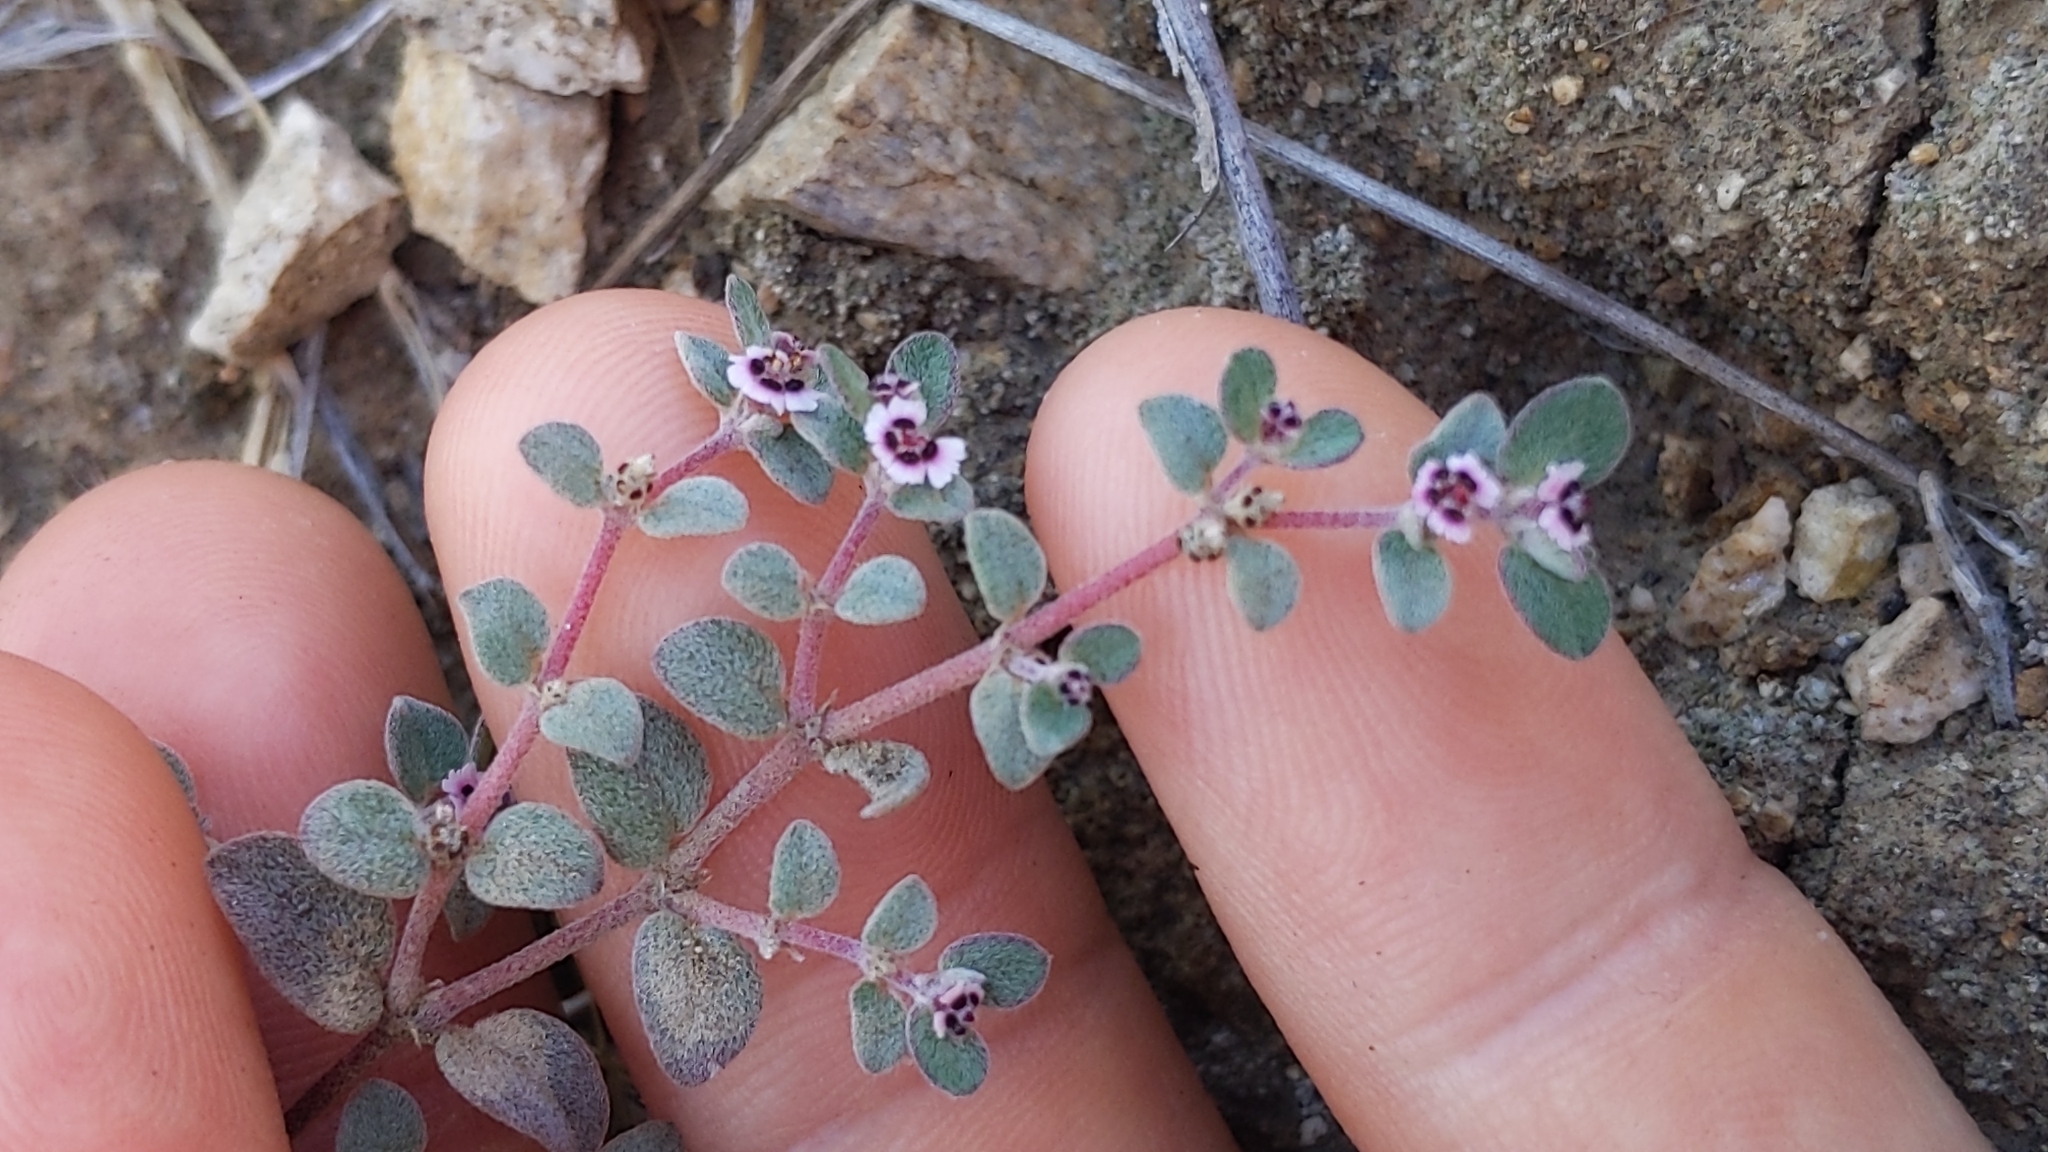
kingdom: Plantae
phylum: Tracheophyta
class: Magnoliopsida
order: Malpighiales
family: Euphorbiaceae
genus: Euphorbia
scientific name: Euphorbia melanadenia
